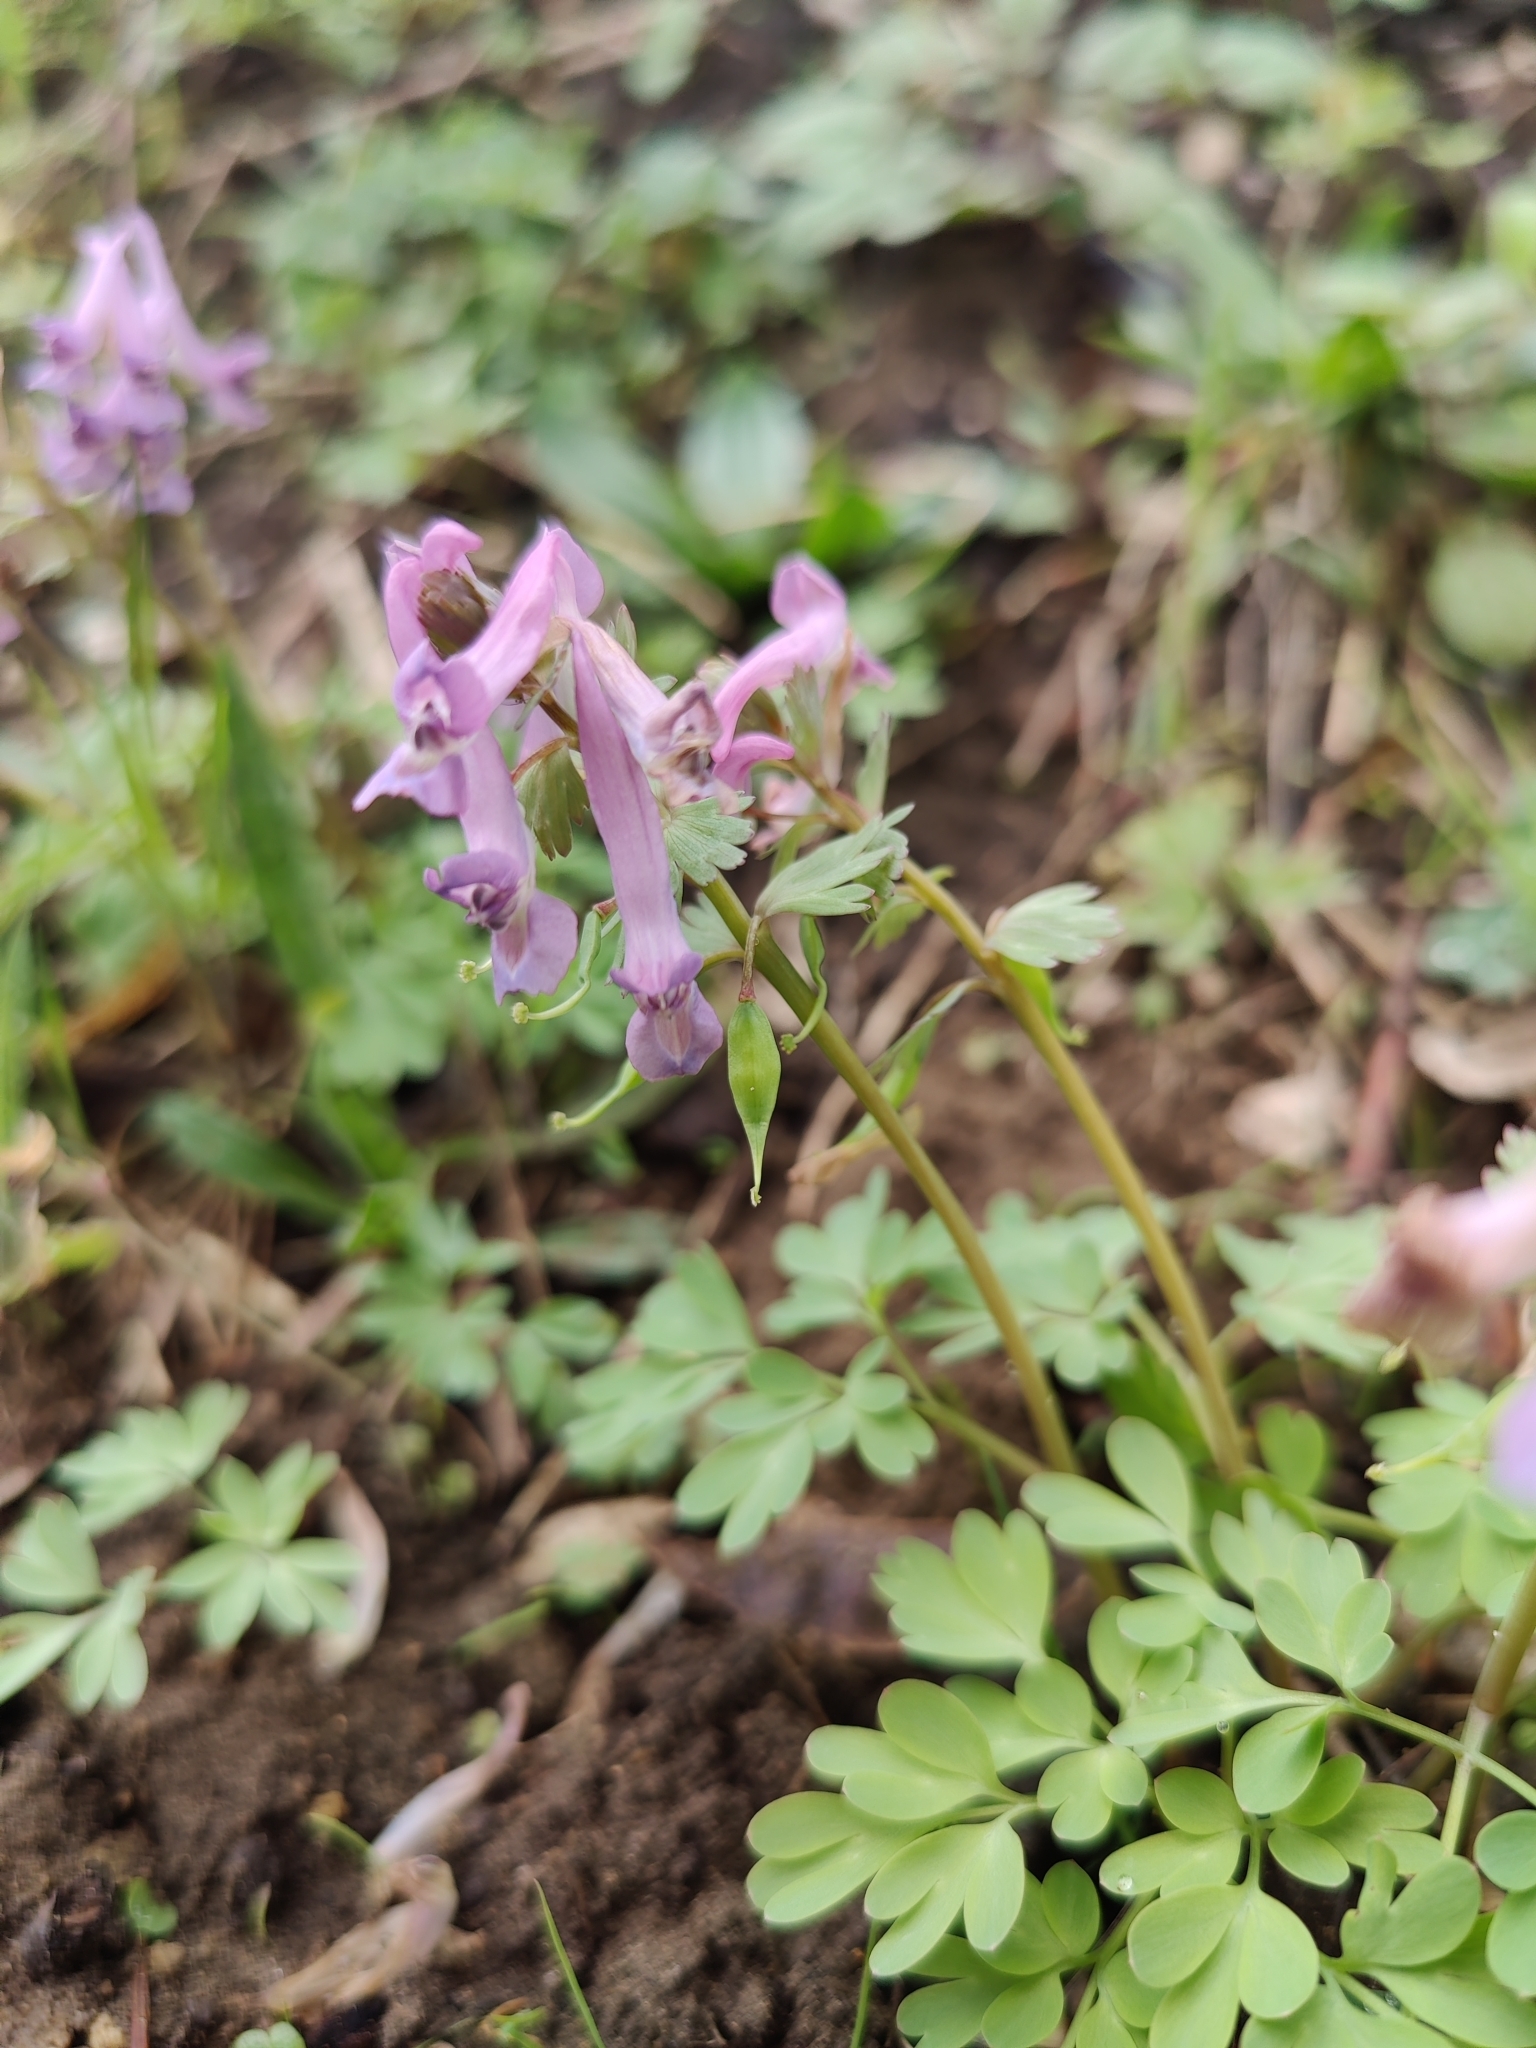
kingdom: Plantae
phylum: Tracheophyta
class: Magnoliopsida
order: Ranunculales
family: Papaveraceae
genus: Corydalis
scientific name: Corydalis solida
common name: Bird-in-a-bush
